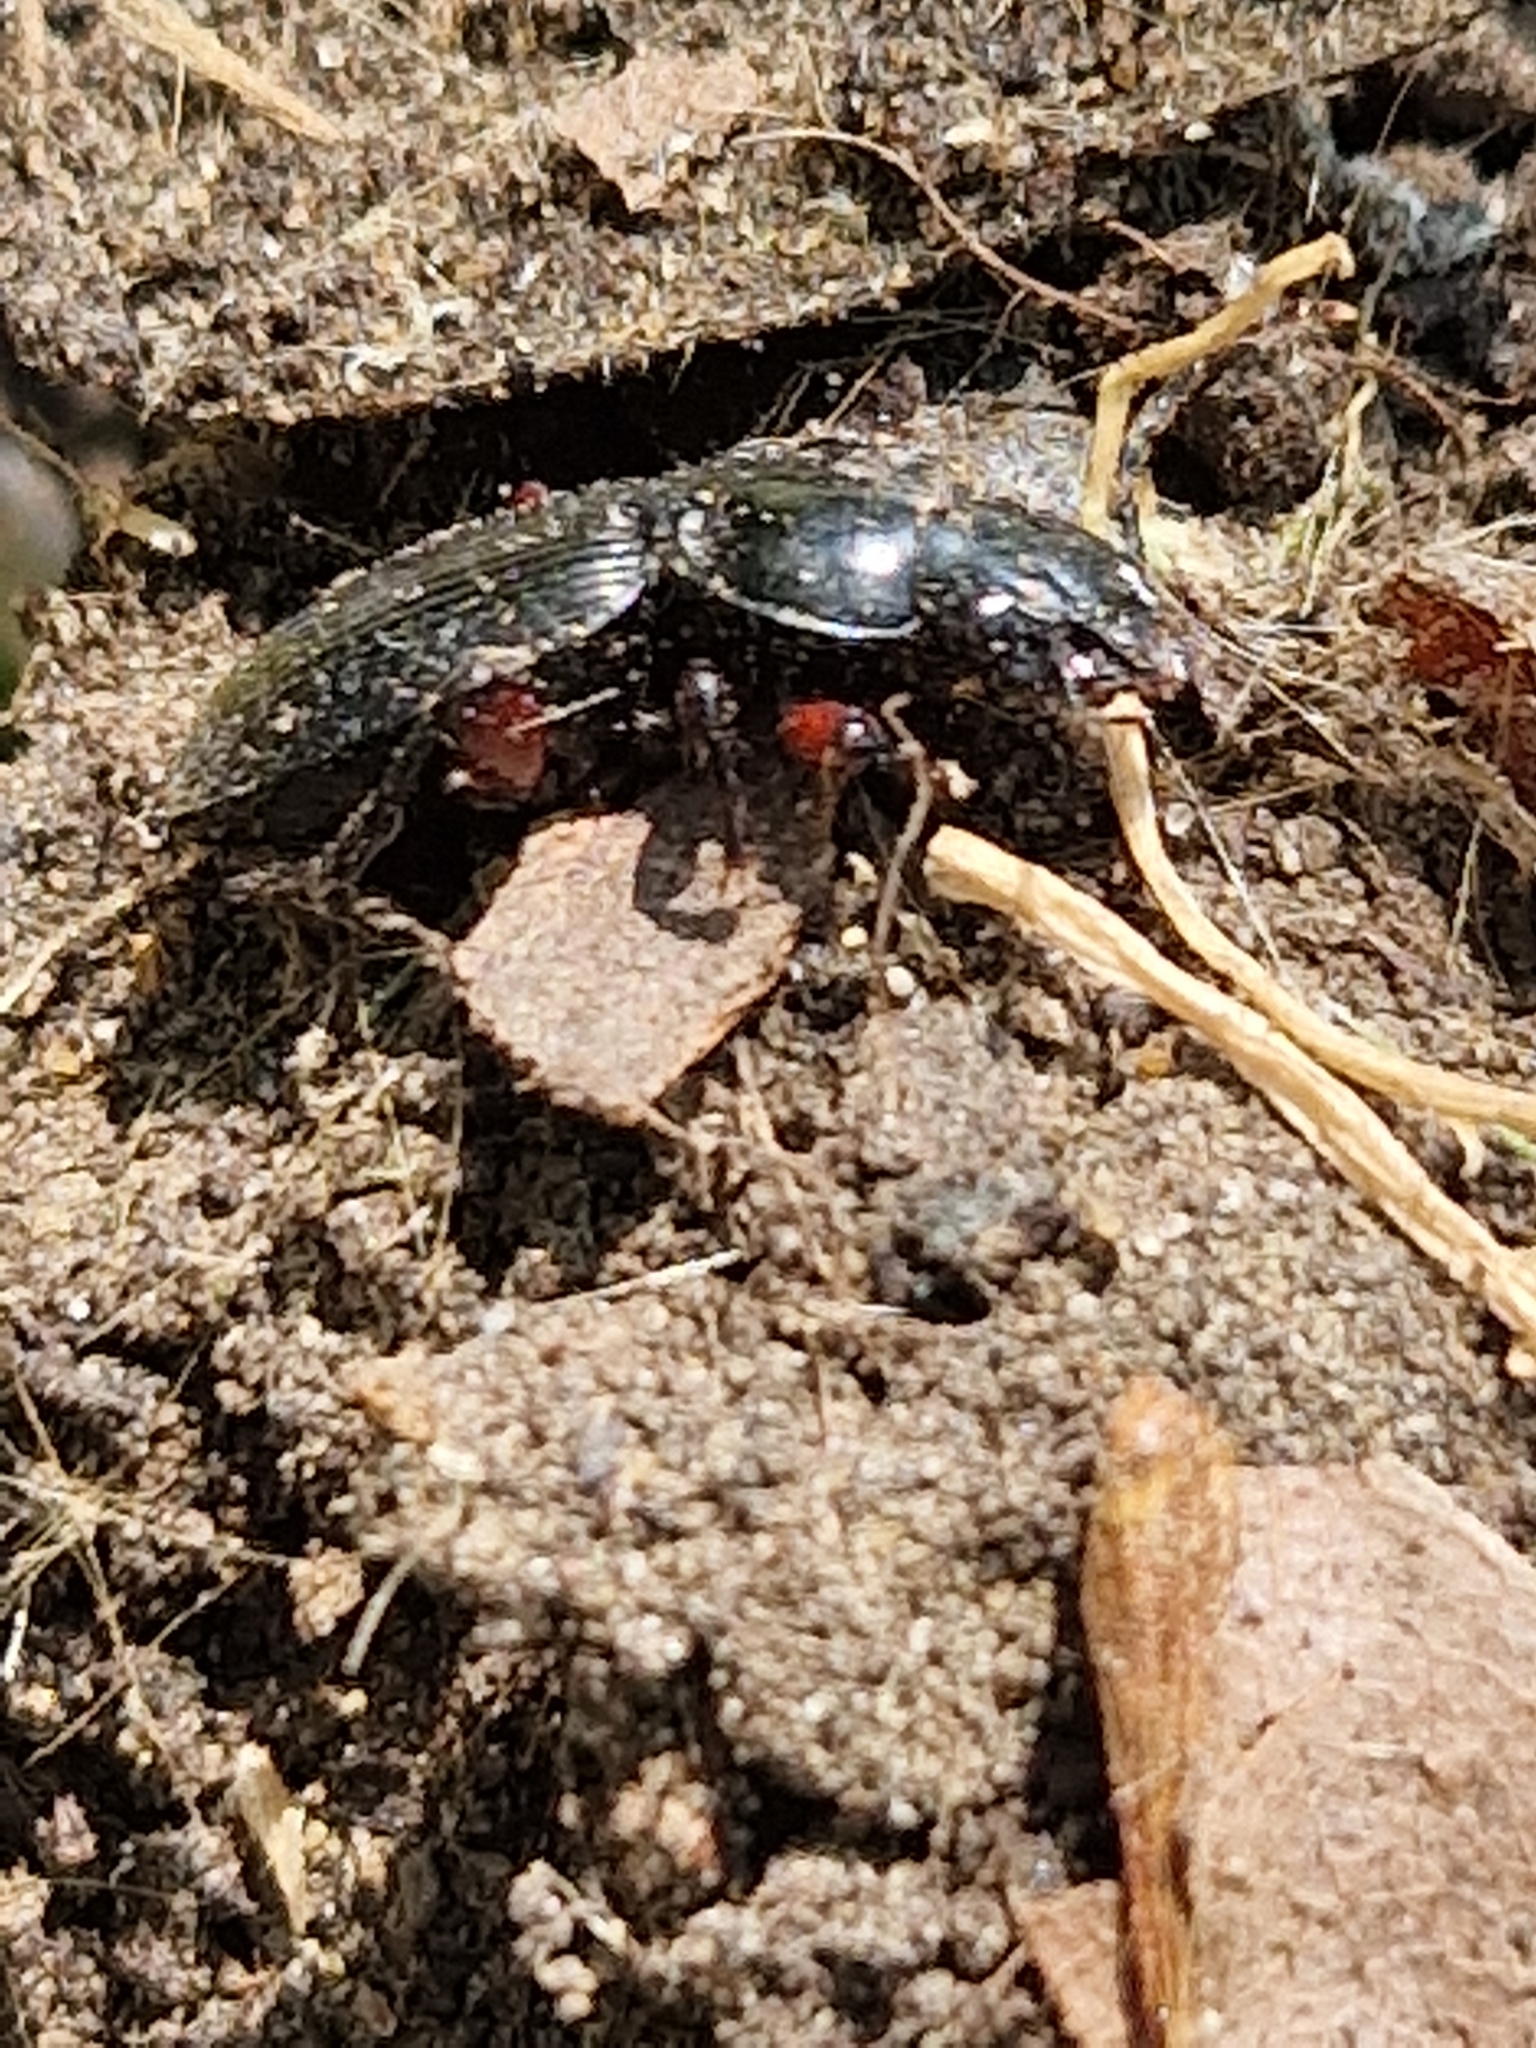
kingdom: Animalia
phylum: Arthropoda
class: Insecta
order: Coleoptera
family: Carabidae
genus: Pterostichus
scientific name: Pterostichus madidus
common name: Black clock
